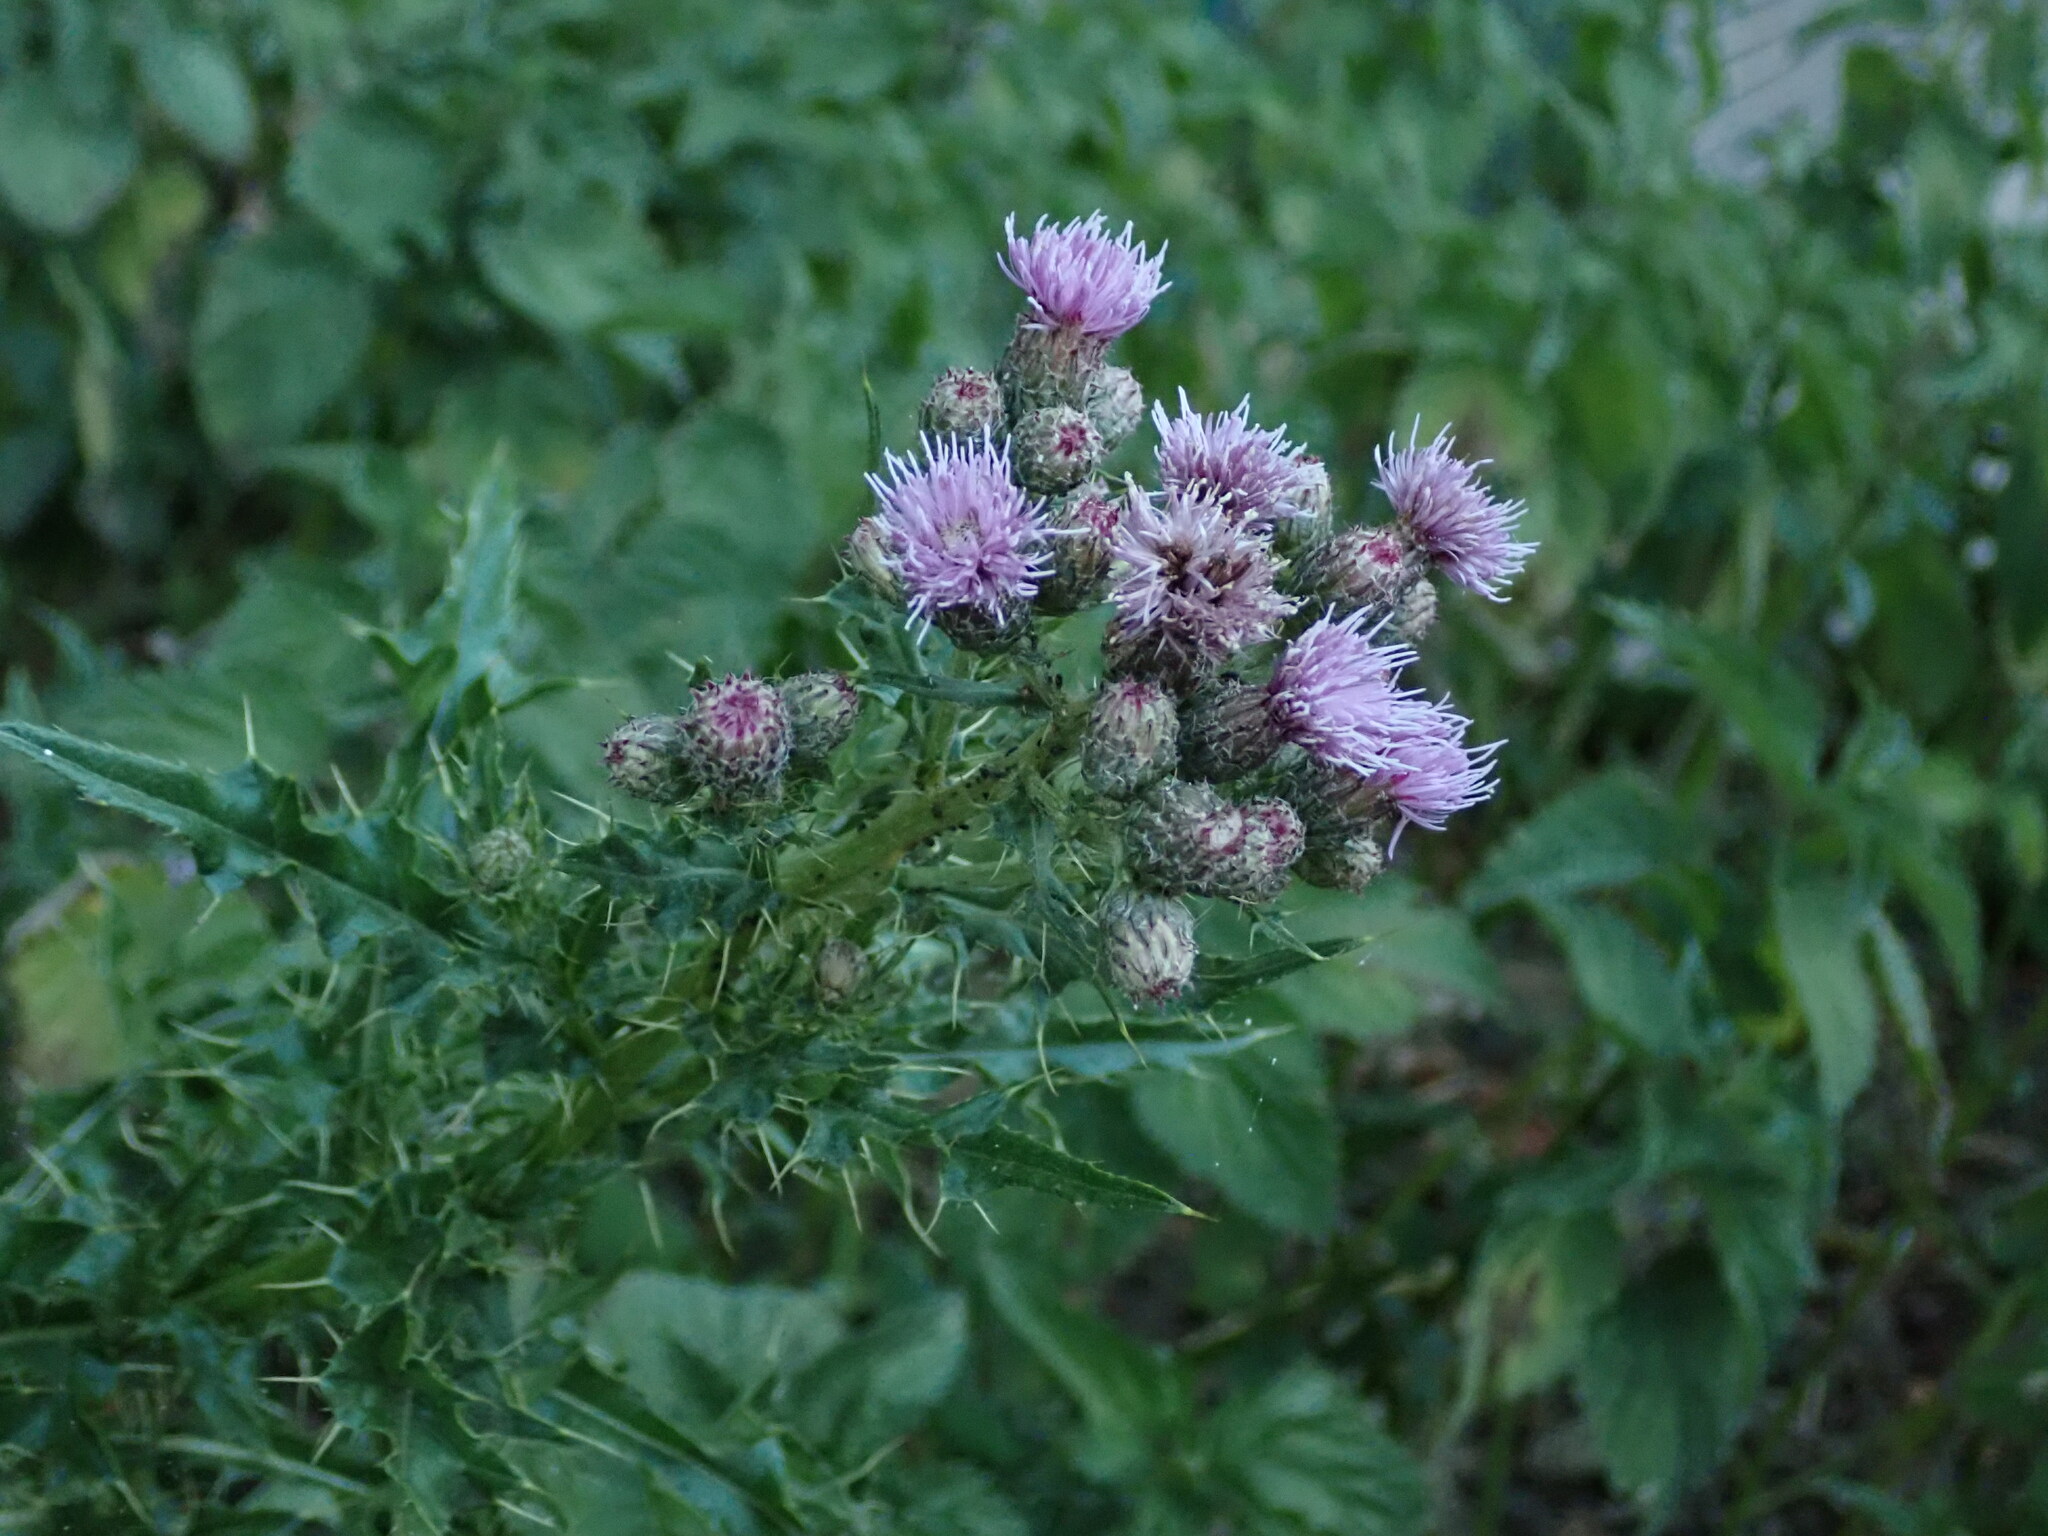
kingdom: Plantae
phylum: Tracheophyta
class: Magnoliopsida
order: Asterales
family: Asteraceae
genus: Cirsium
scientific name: Cirsium arvense
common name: Creeping thistle
